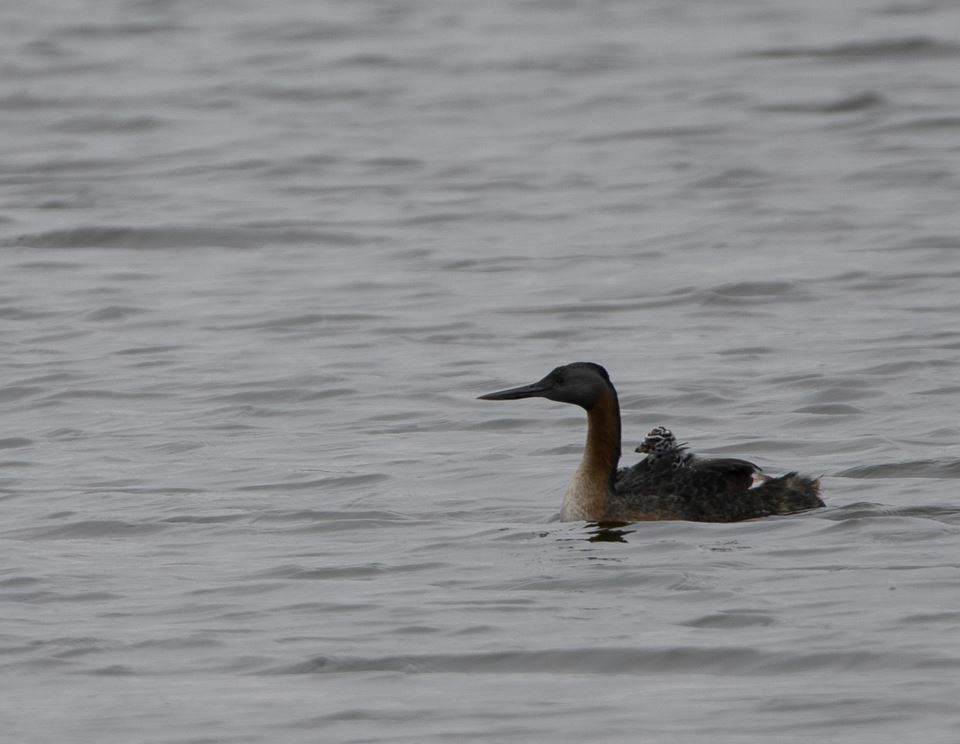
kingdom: Animalia
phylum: Chordata
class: Aves
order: Podicipediformes
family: Podicipedidae
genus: Podiceps
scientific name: Podiceps major
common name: Great grebe
